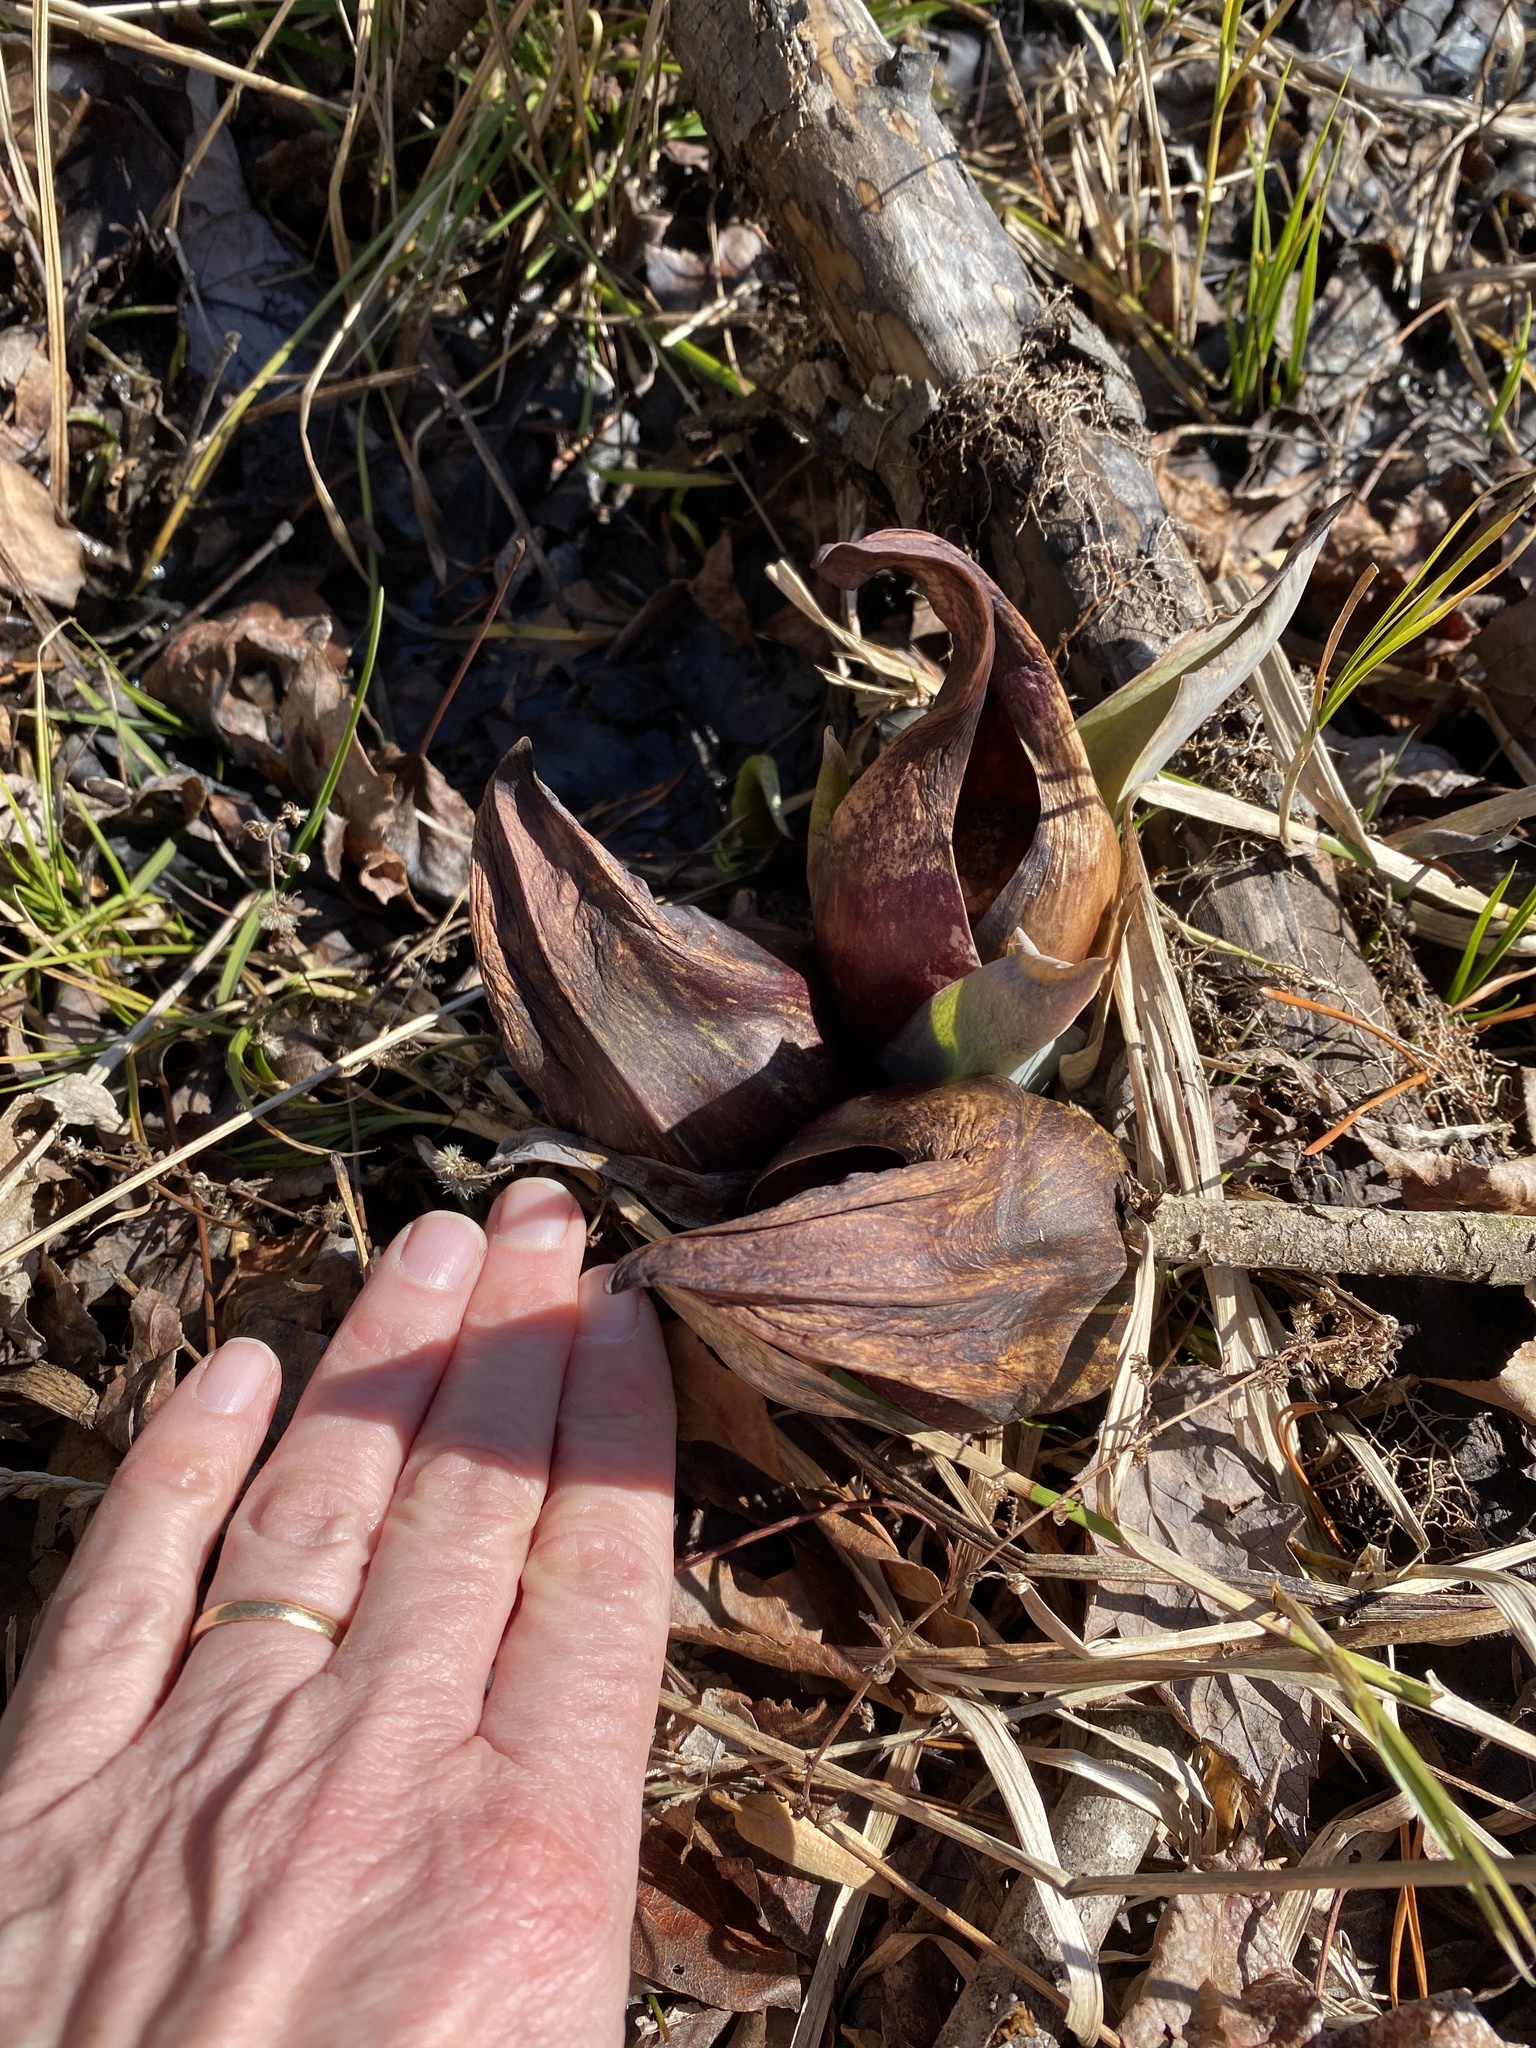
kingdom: Plantae
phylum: Tracheophyta
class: Liliopsida
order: Alismatales
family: Araceae
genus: Symplocarpus
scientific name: Symplocarpus foetidus
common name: Eastern skunk cabbage
